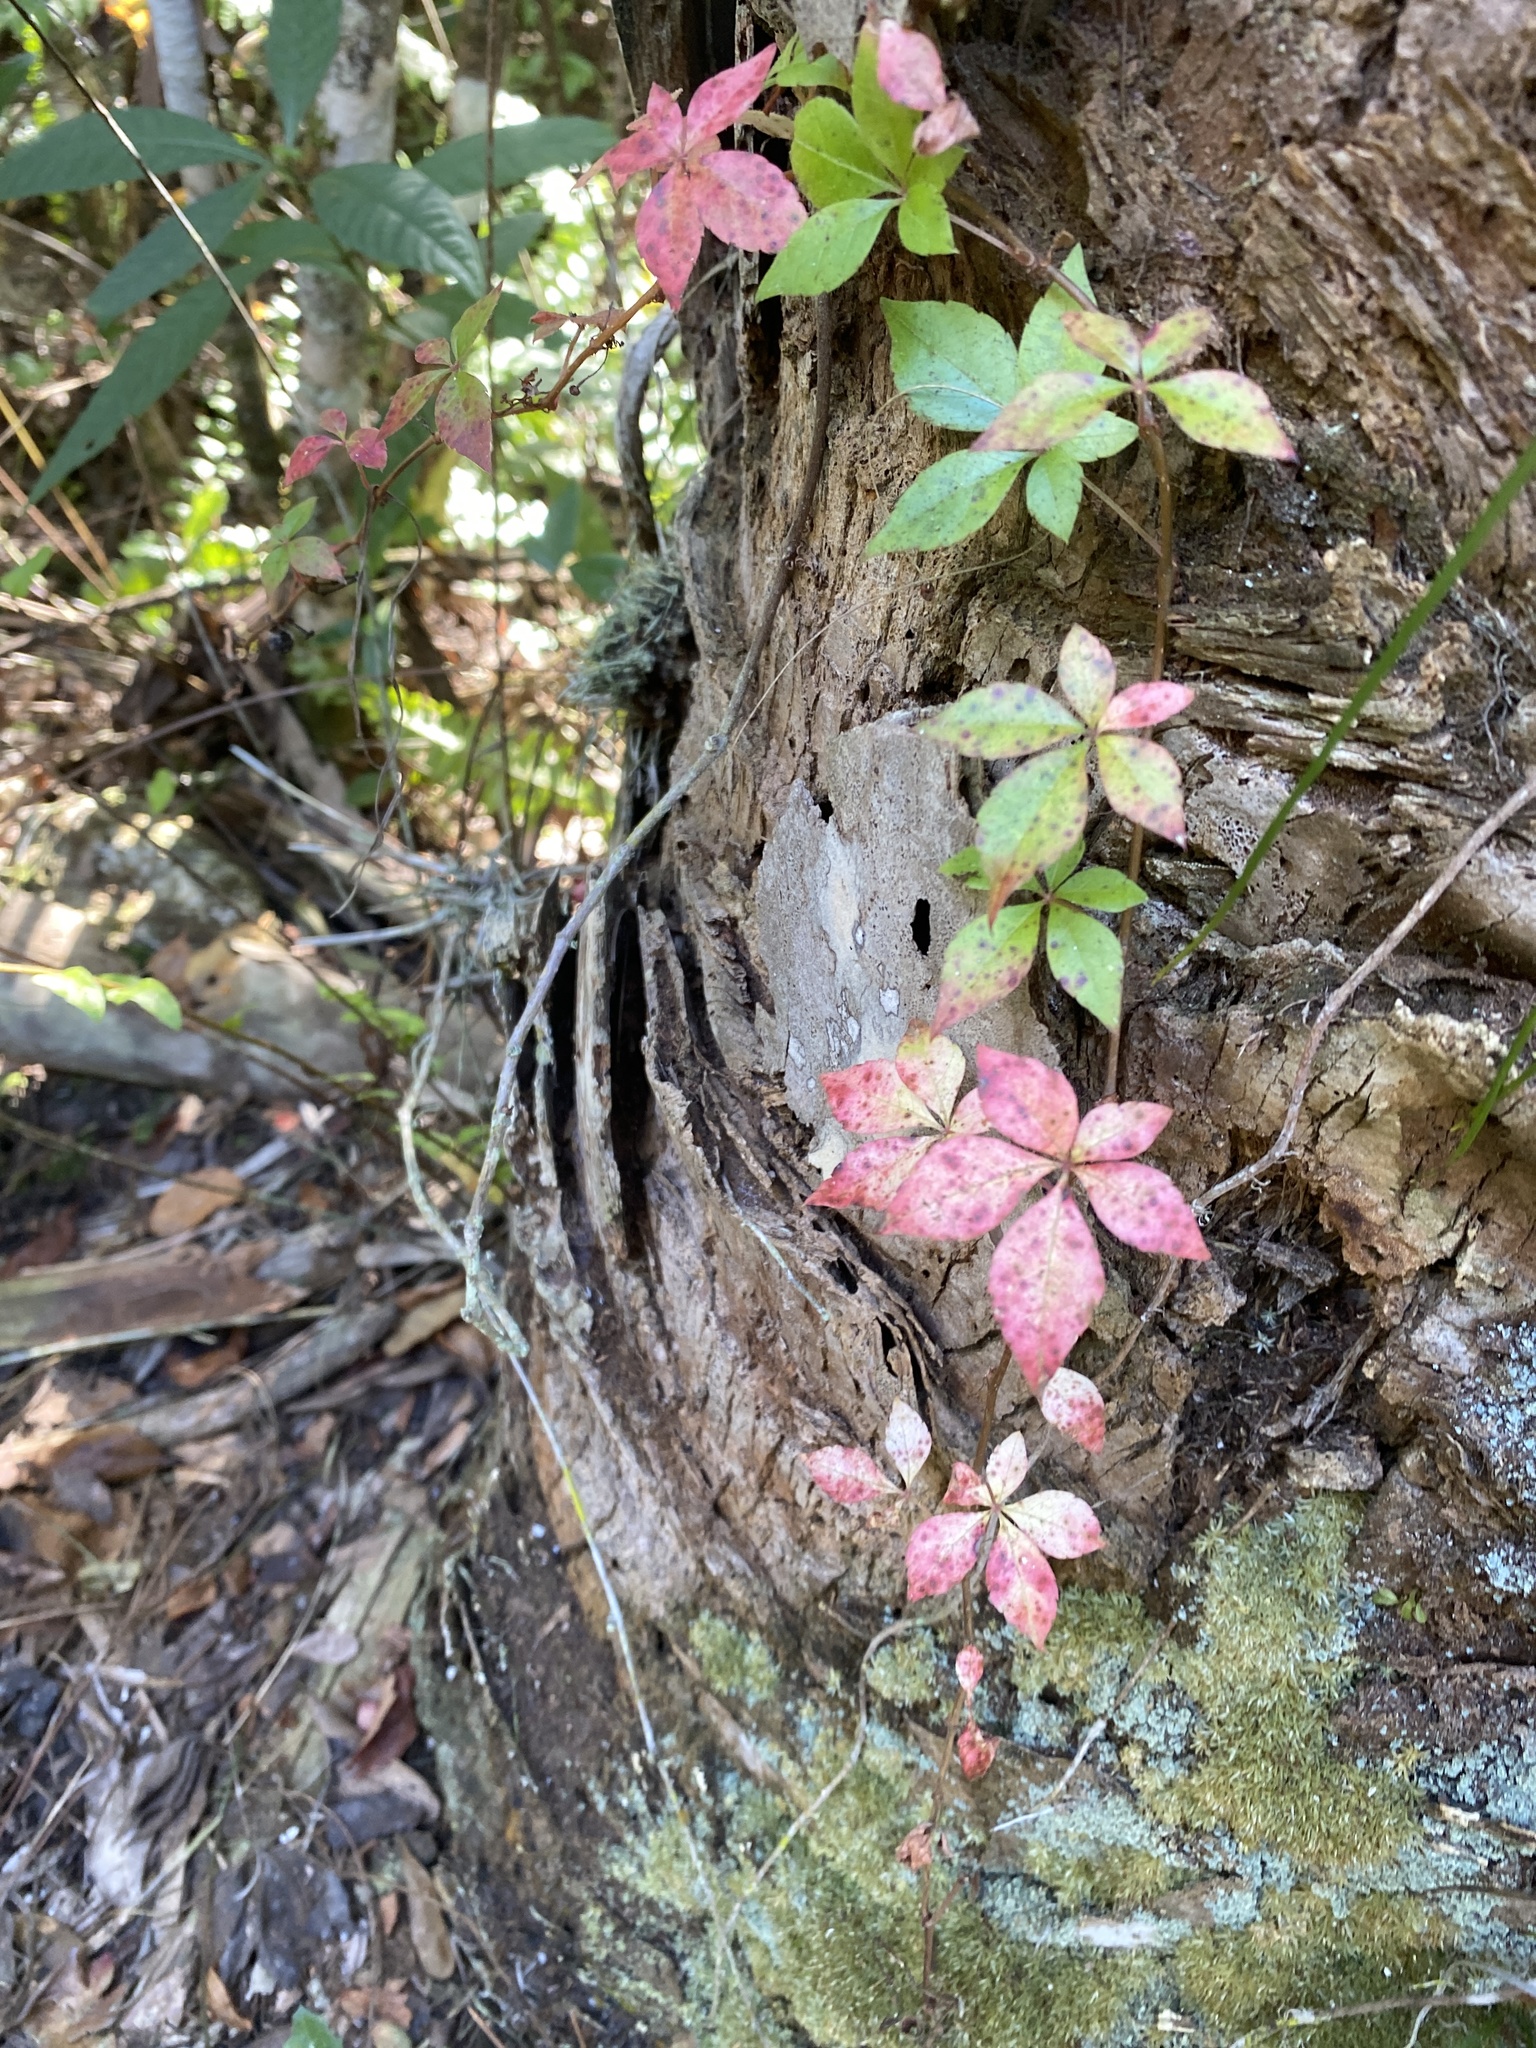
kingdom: Plantae
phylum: Tracheophyta
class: Magnoliopsida
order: Vitales
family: Vitaceae
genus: Parthenocissus
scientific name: Parthenocissus quinquefolia
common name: Virginia-creeper
